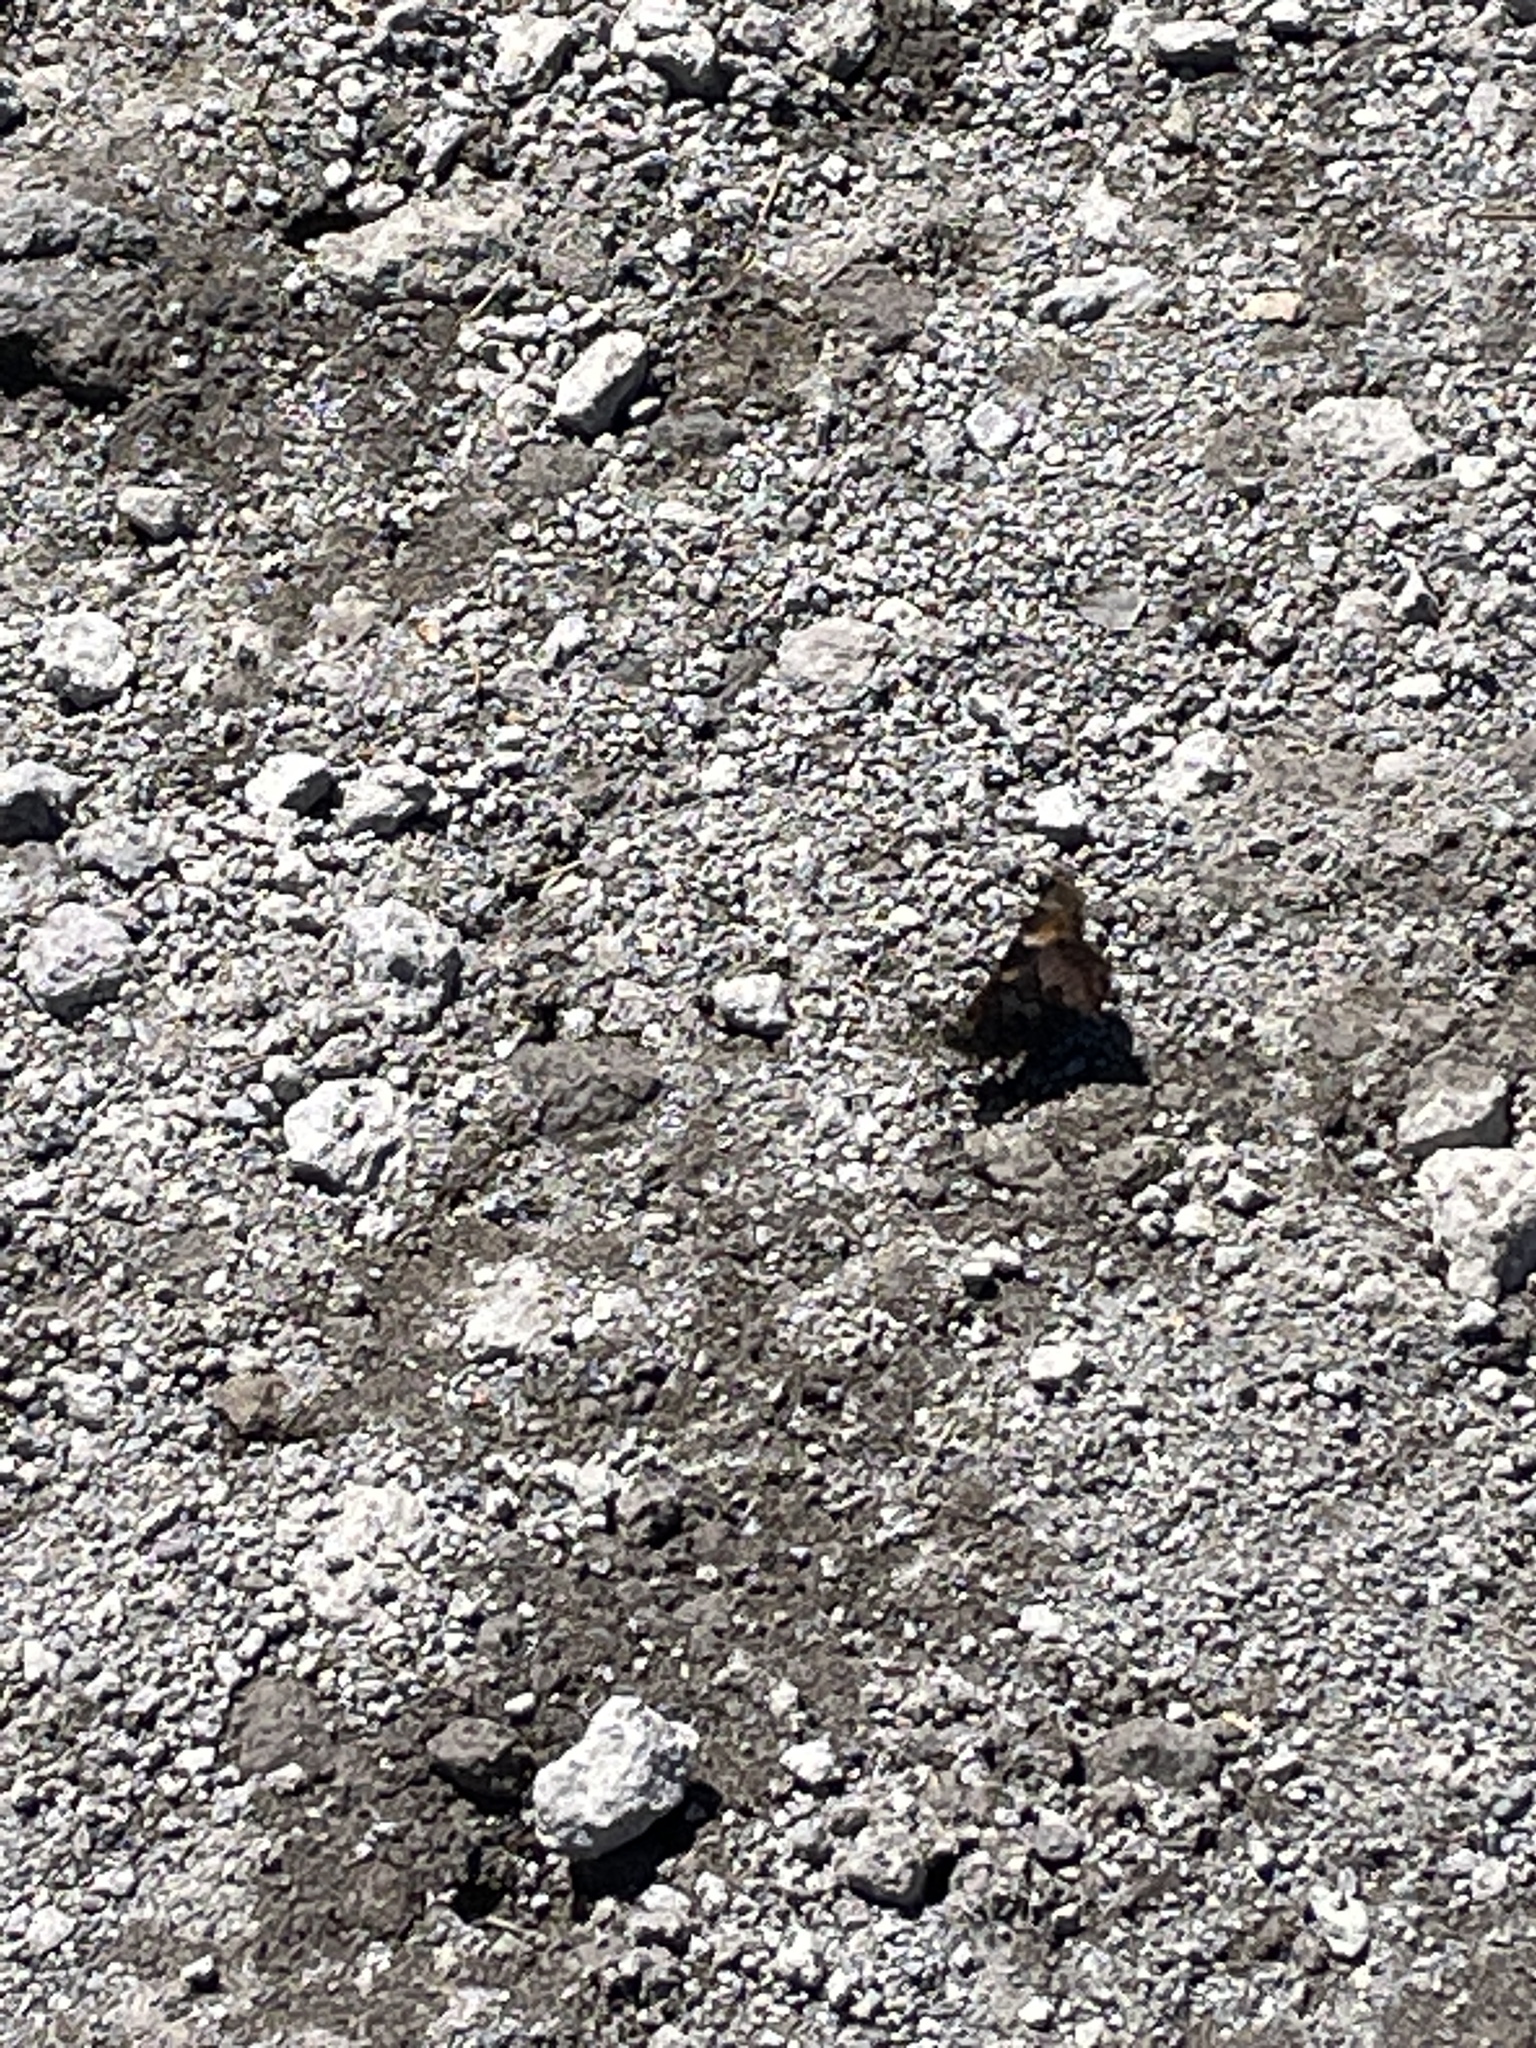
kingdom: Animalia
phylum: Arthropoda
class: Insecta
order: Lepidoptera
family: Nymphalidae
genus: Nymphalis
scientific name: Nymphalis californica
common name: California tortoiseshell
